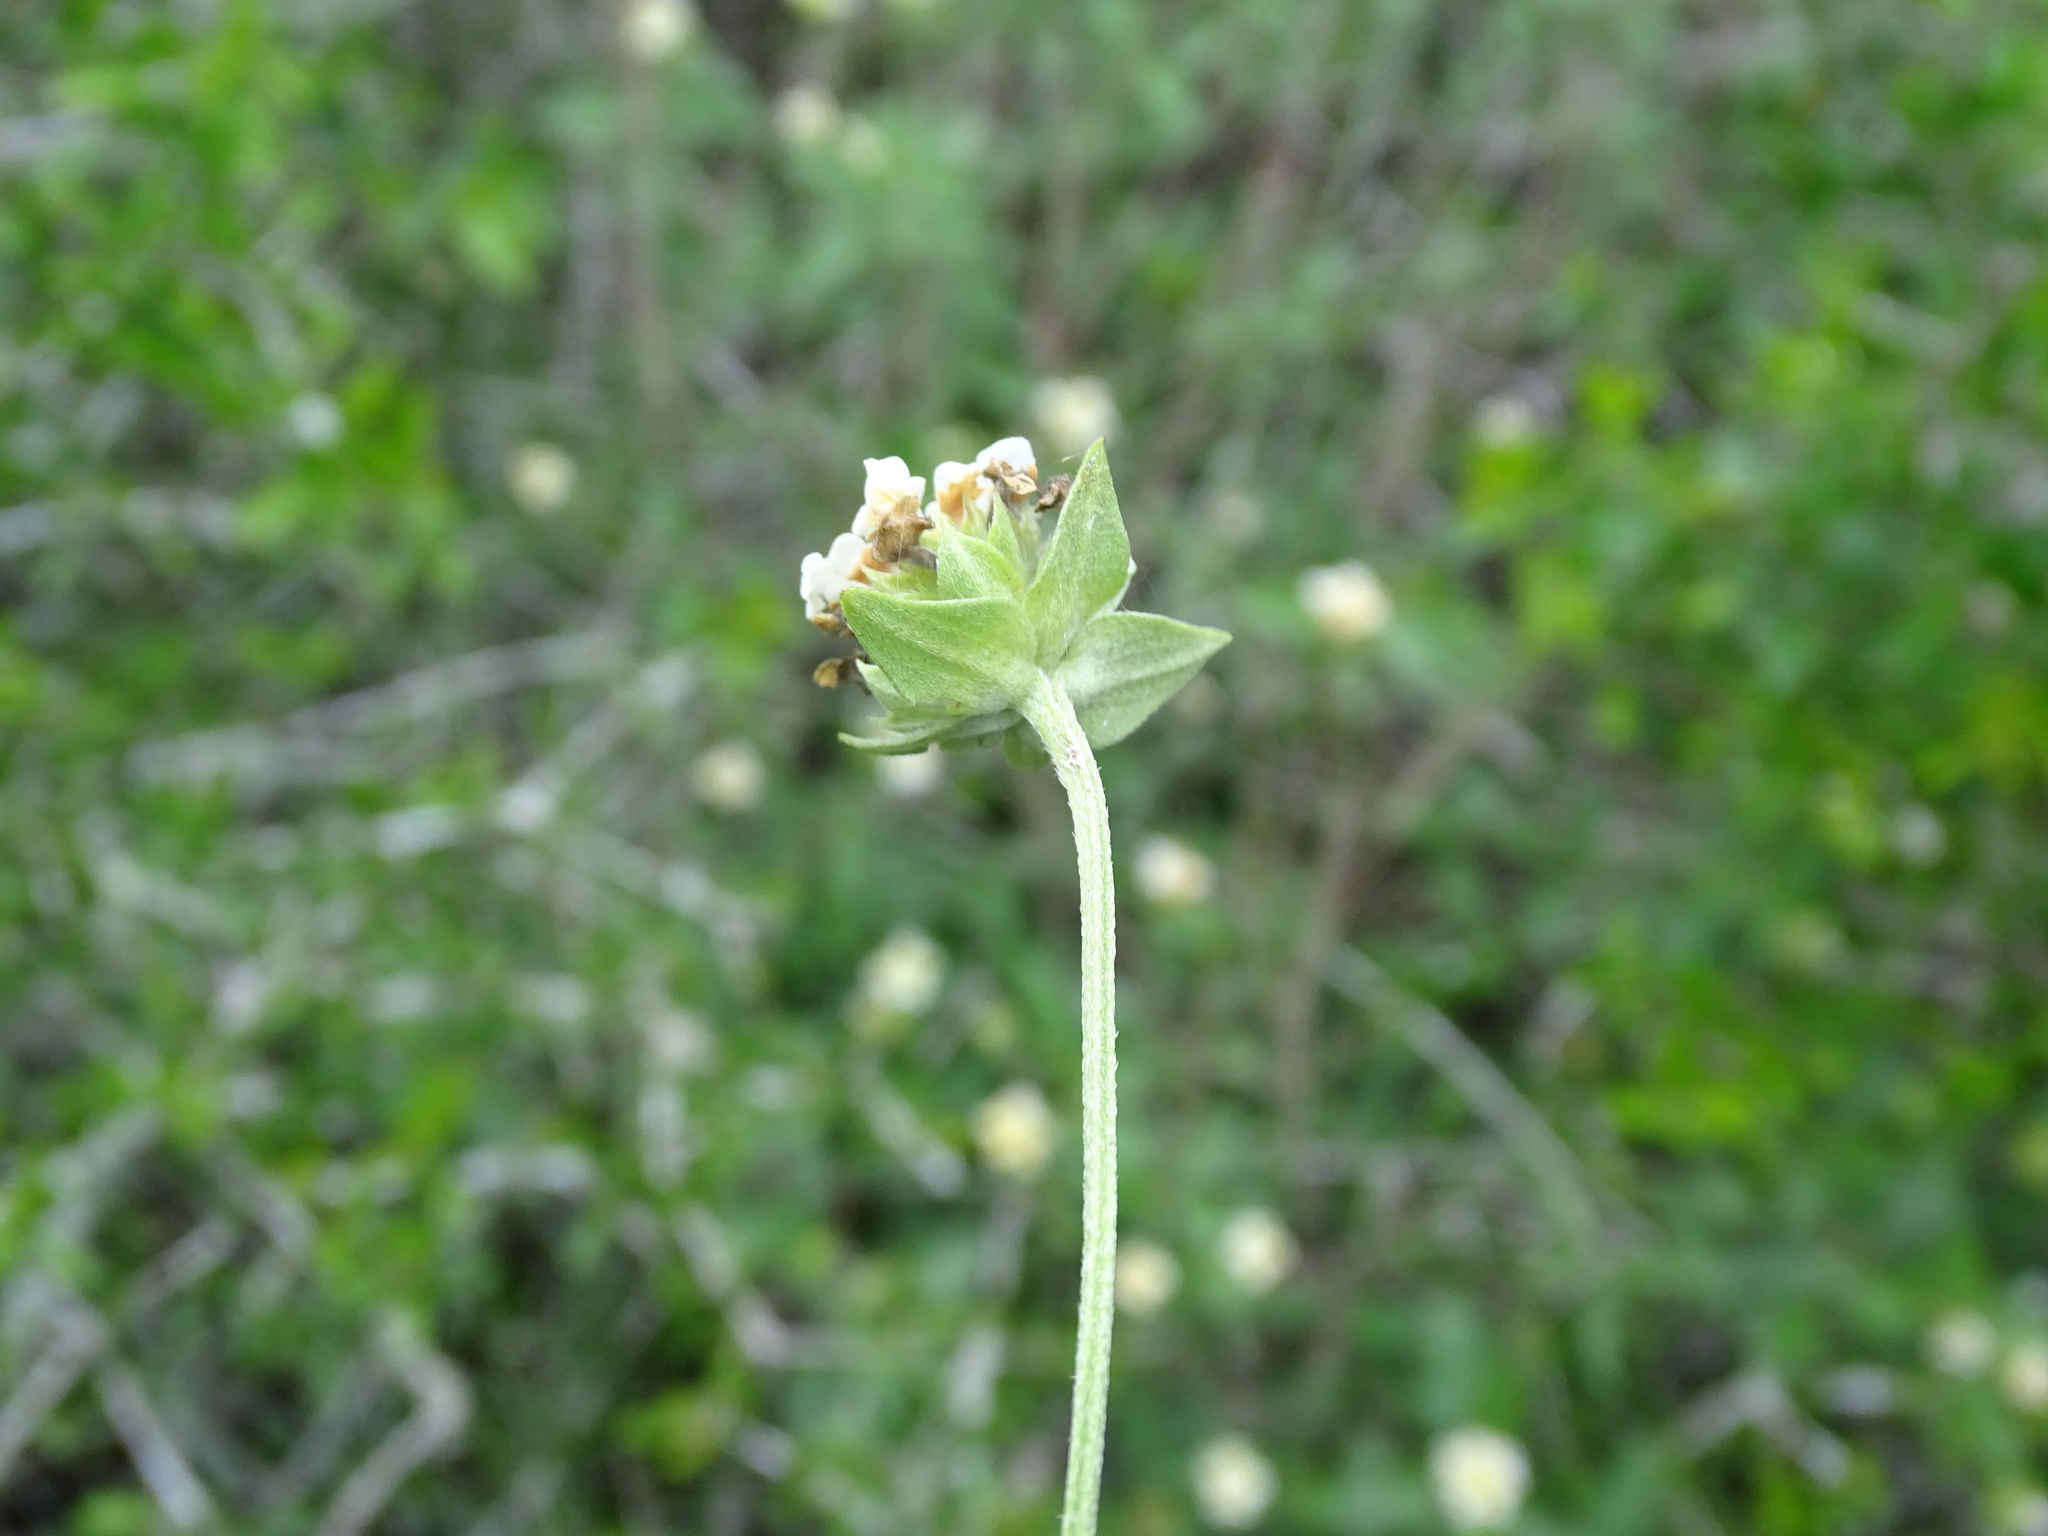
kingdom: Plantae
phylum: Tracheophyta
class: Magnoliopsida
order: Lamiales
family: Verbenaceae
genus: Lantana
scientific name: Lantana achyranthifolia
